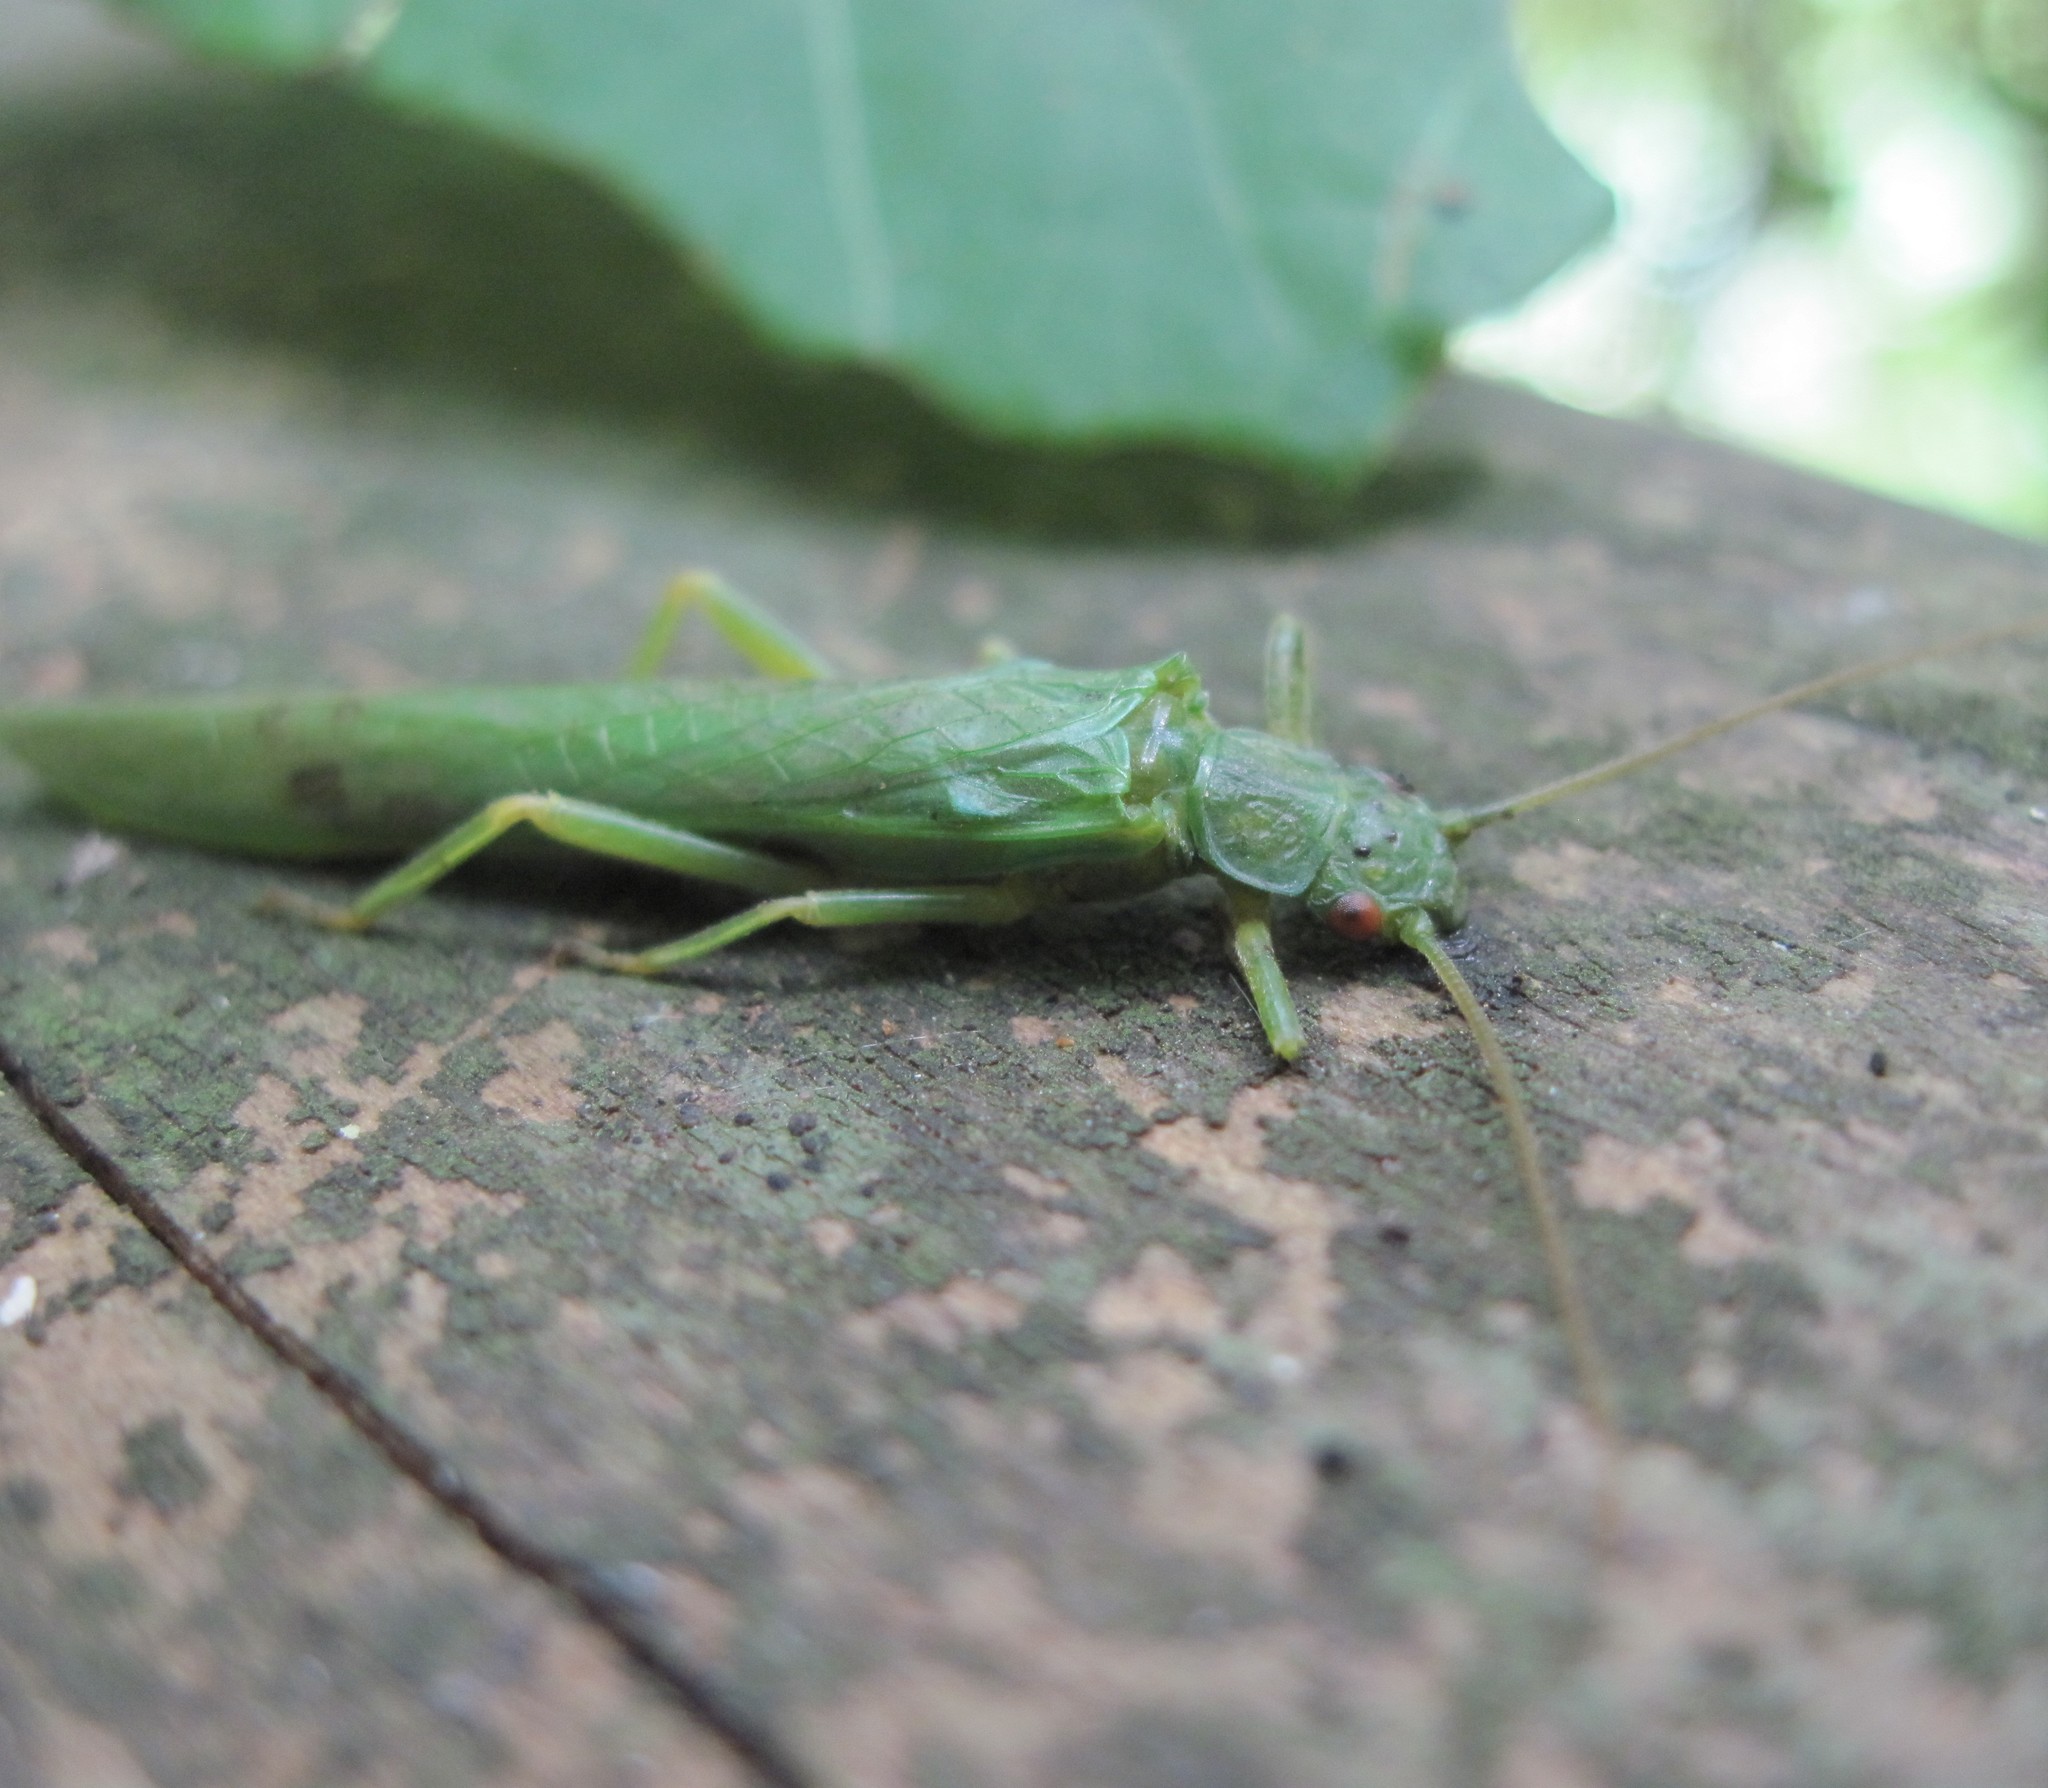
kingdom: Animalia
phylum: Arthropoda
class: Insecta
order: Plecoptera
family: Eustheniidae
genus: Stenoperla
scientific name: Stenoperla prasina
